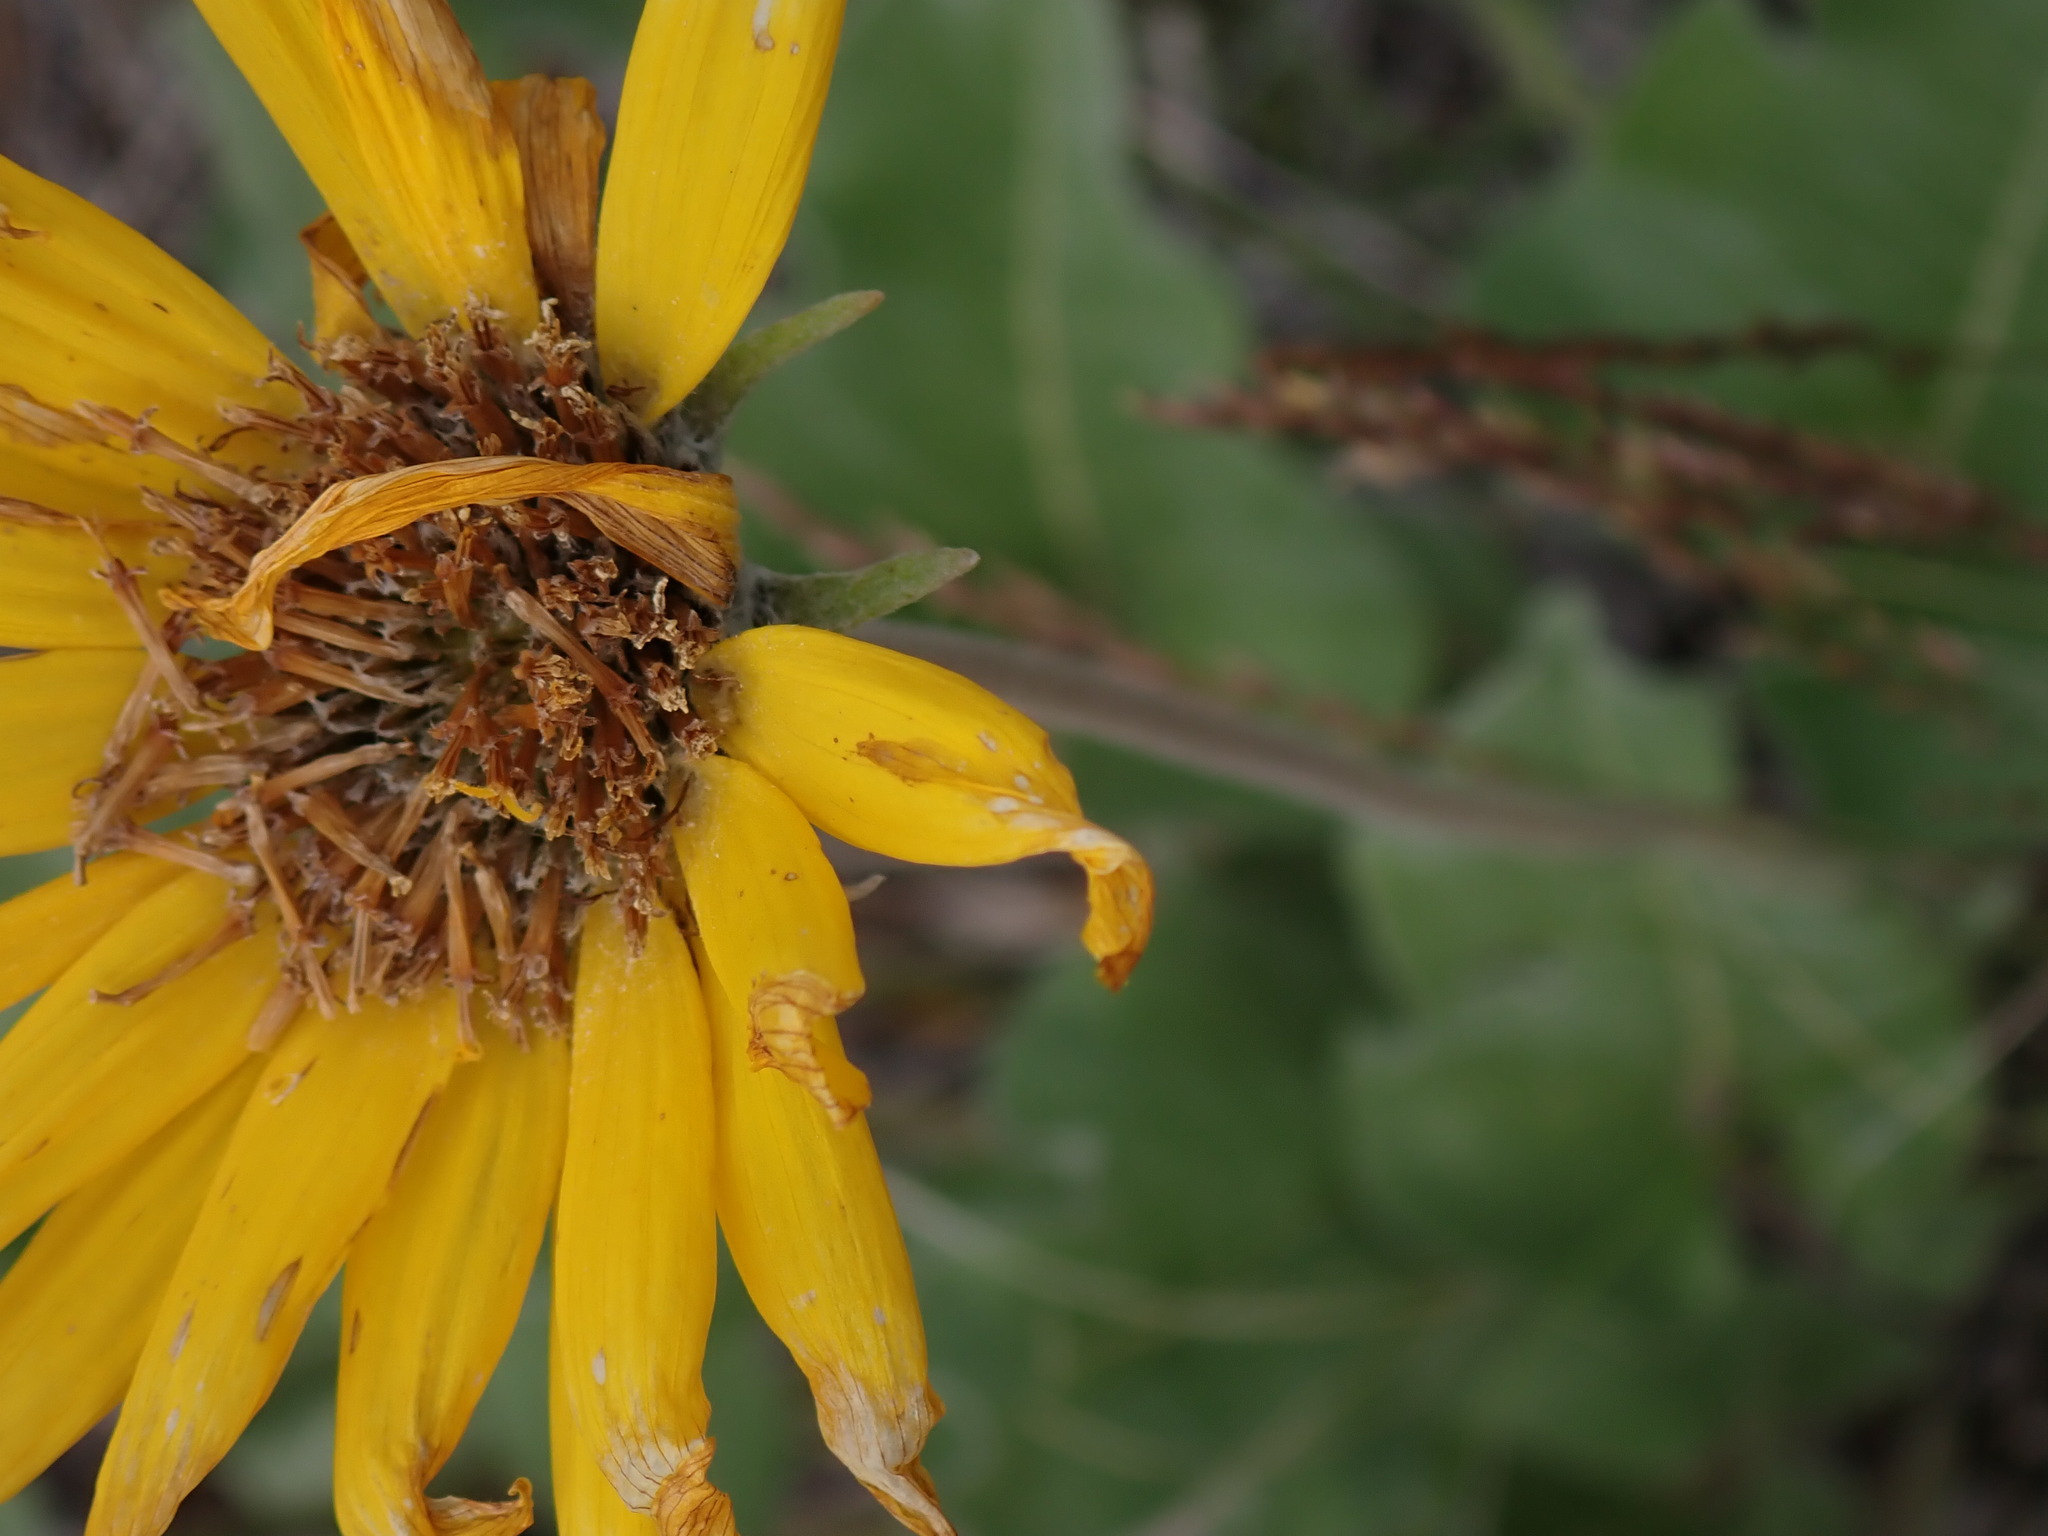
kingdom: Plantae
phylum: Tracheophyta
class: Magnoliopsida
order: Asterales
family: Asteraceae
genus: Wyethia
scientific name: Wyethia sagittata
